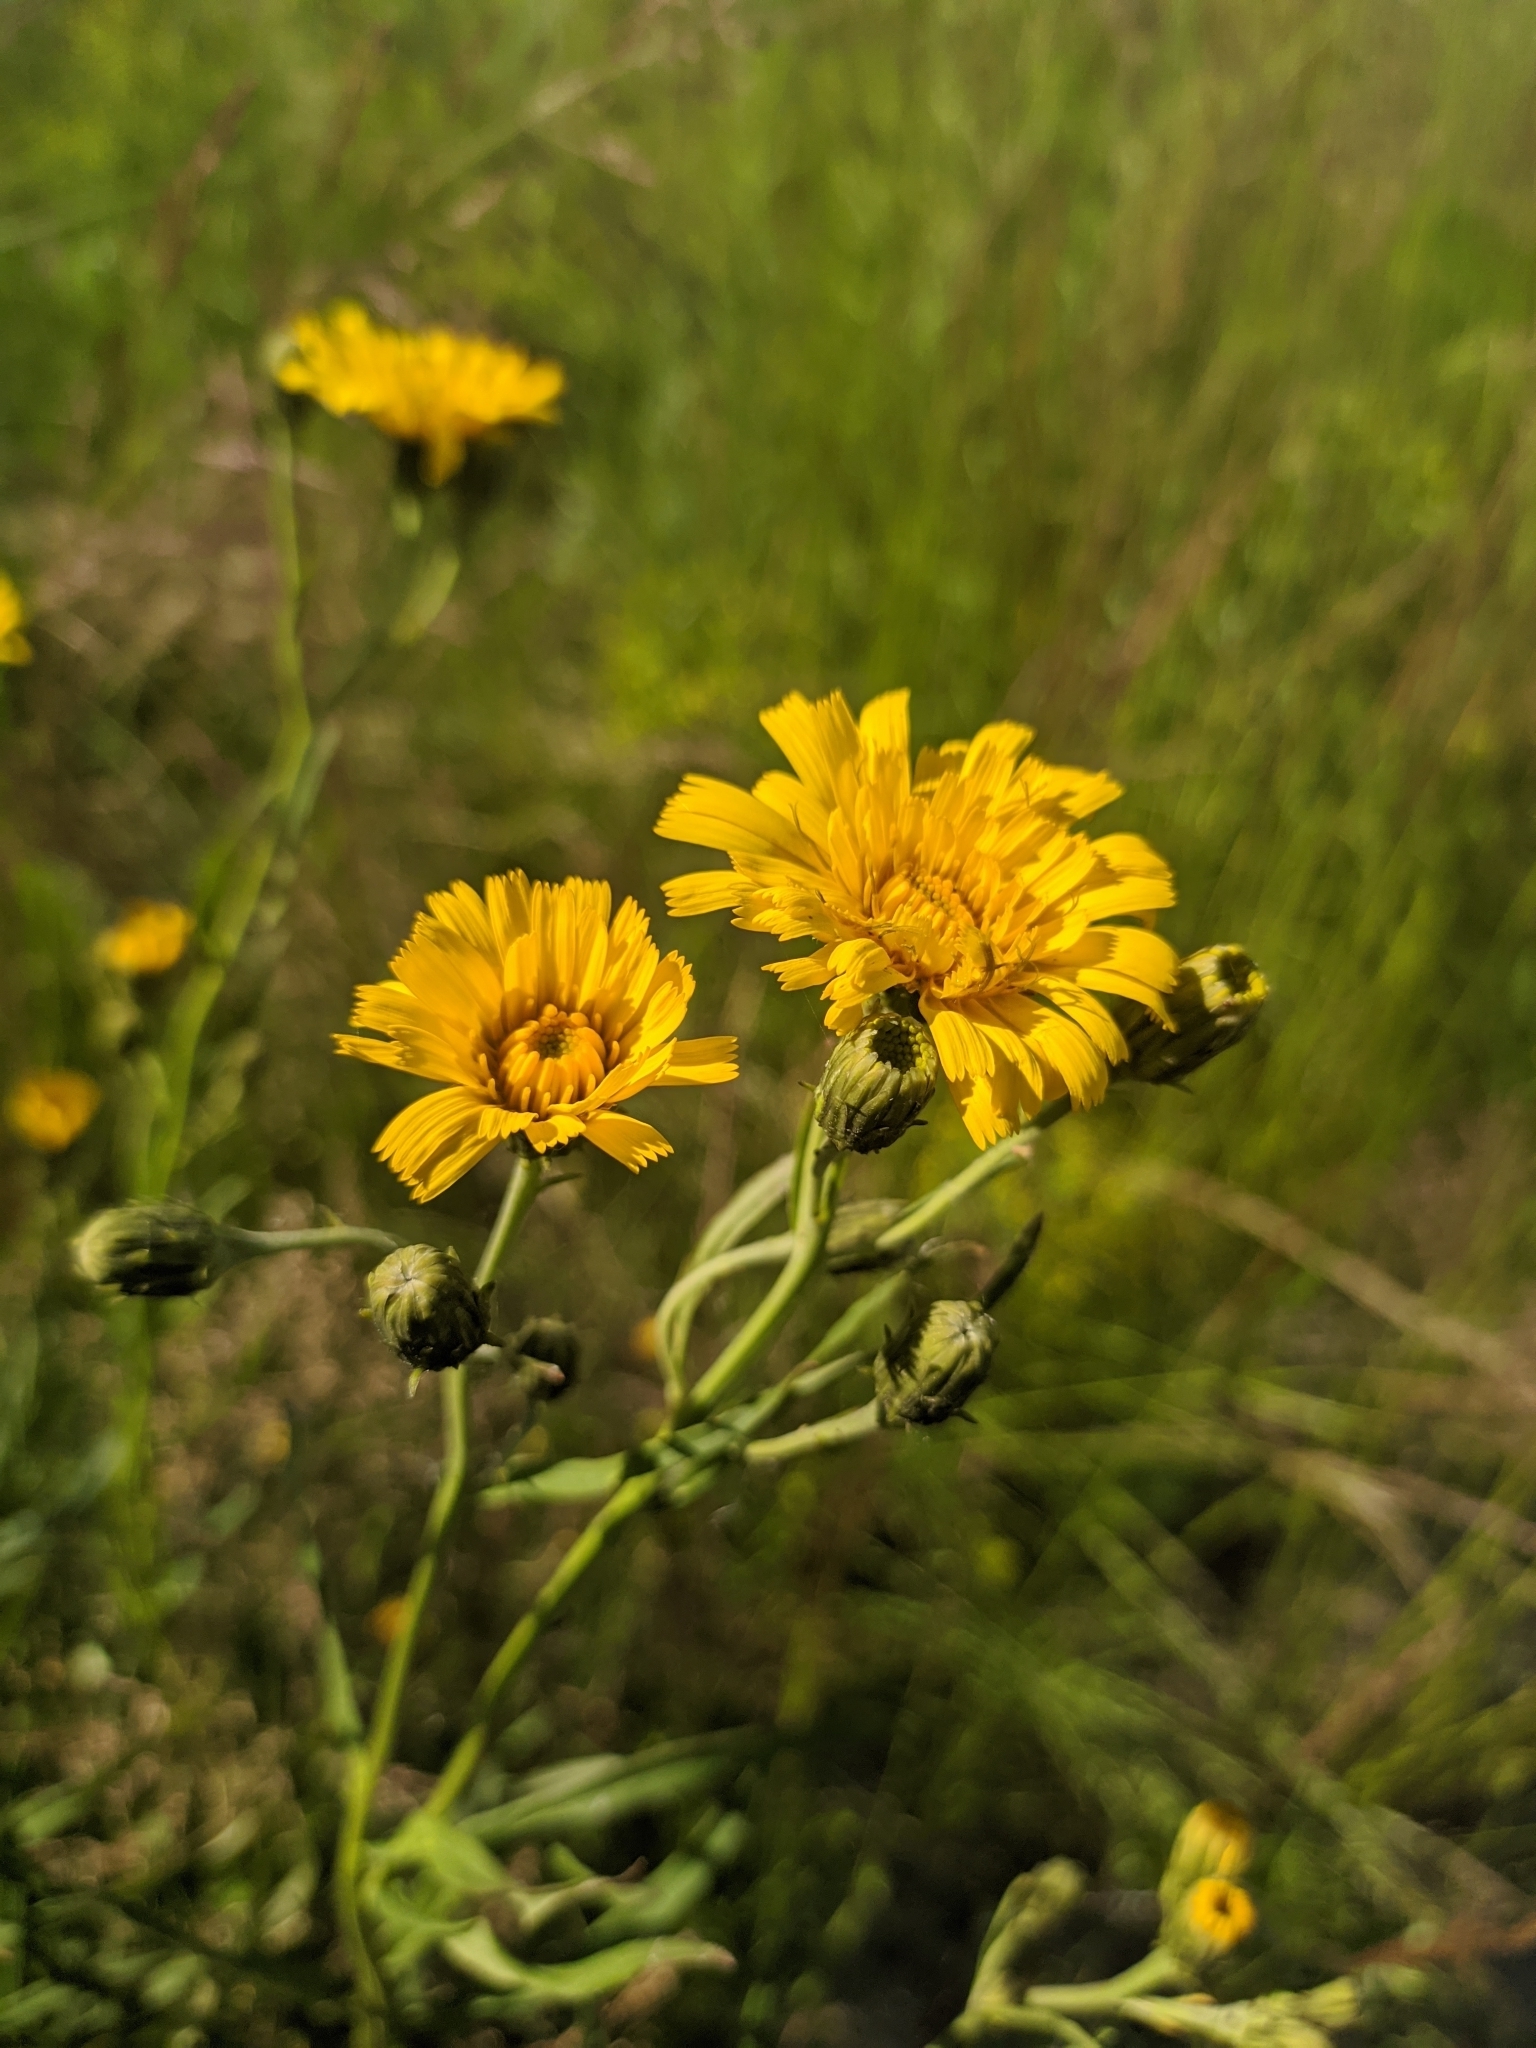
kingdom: Plantae
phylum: Tracheophyta
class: Magnoliopsida
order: Asterales
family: Asteraceae
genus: Hieracium
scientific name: Hieracium umbellatum
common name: Northern hawkweed
